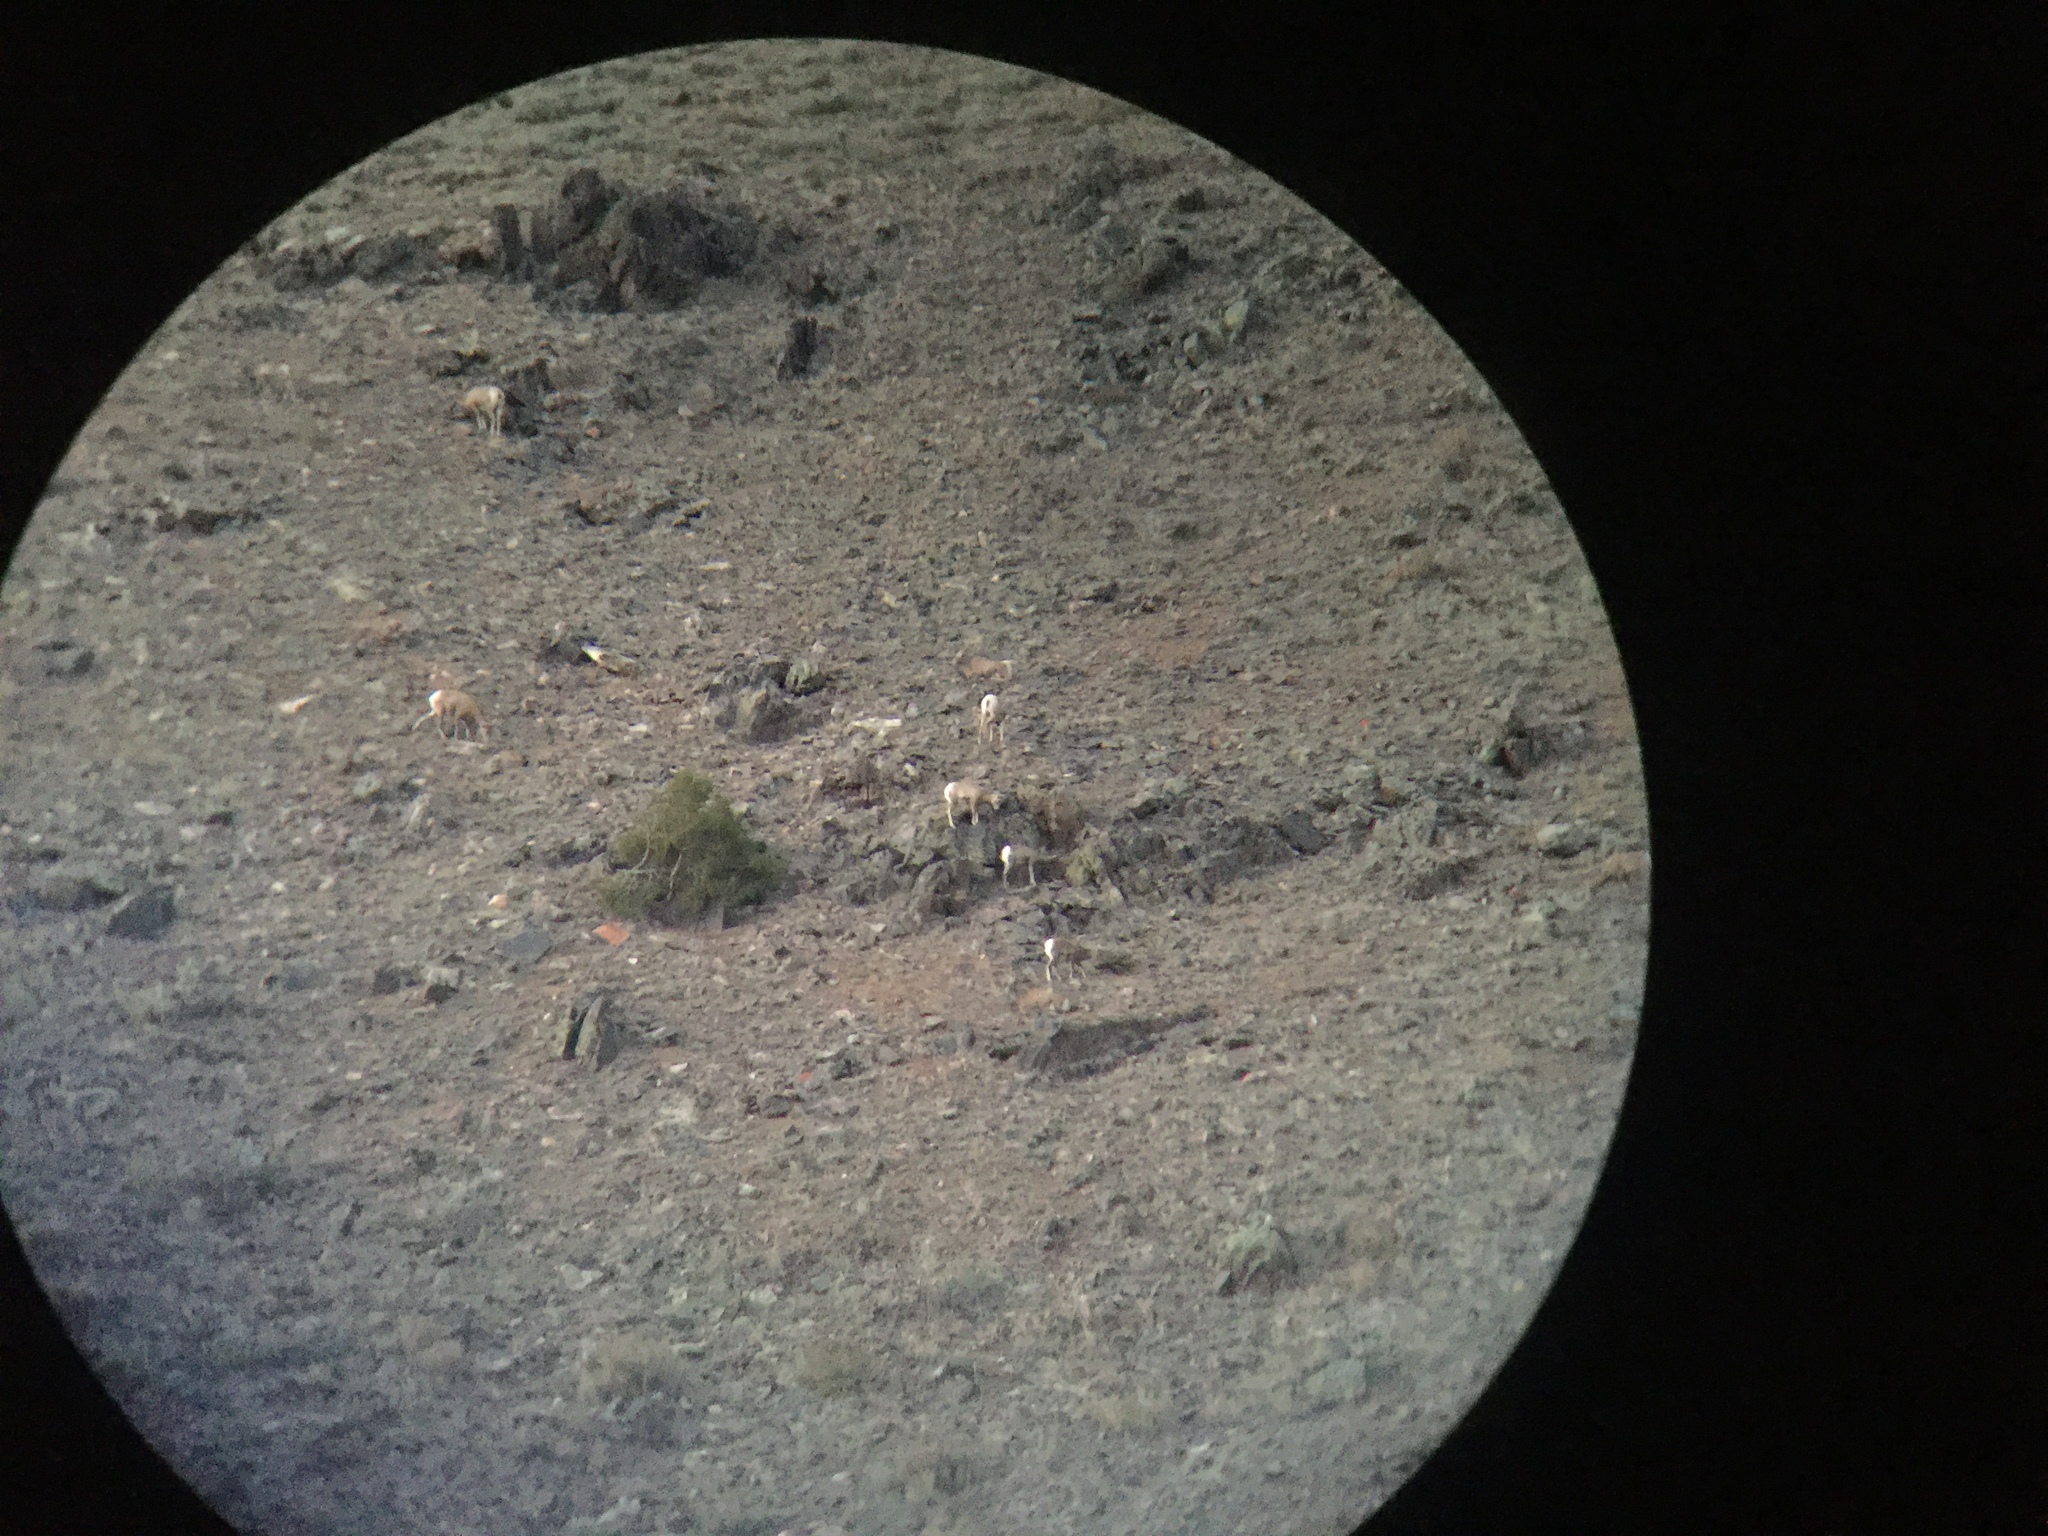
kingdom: Animalia
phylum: Chordata
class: Mammalia
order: Artiodactyla
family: Bovidae
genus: Ovis
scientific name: Ovis canadensis
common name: Bighorn sheep
